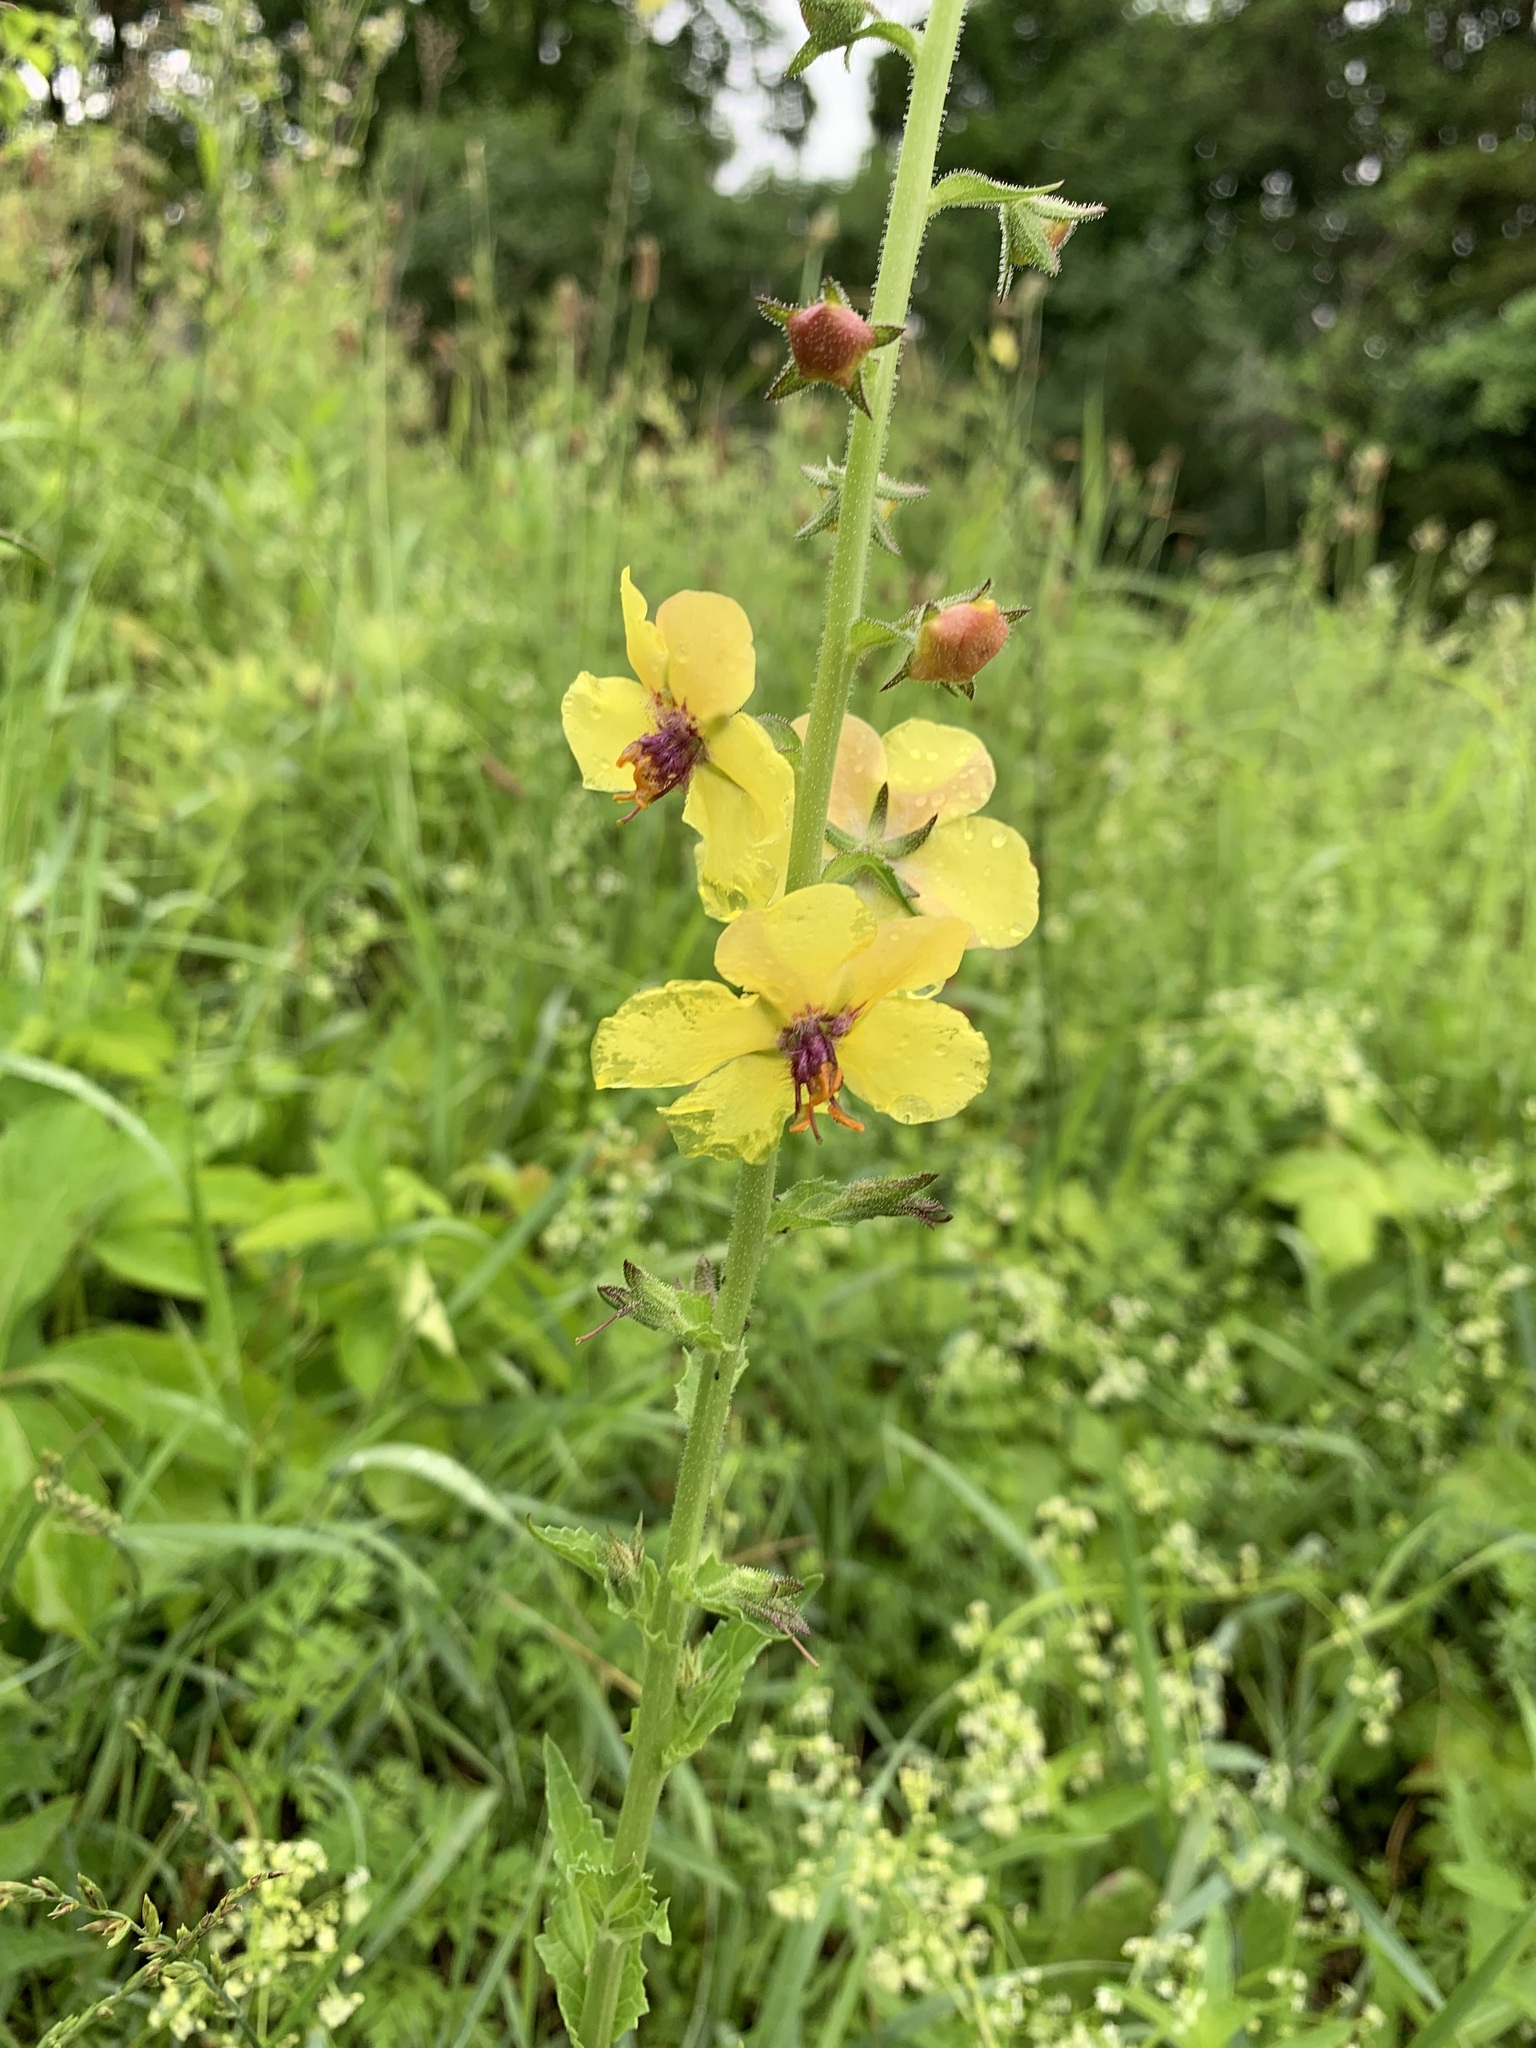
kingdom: Plantae
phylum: Tracheophyta
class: Magnoliopsida
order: Lamiales
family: Scrophulariaceae
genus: Verbascum
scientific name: Verbascum blattaria
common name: Moth mullein
